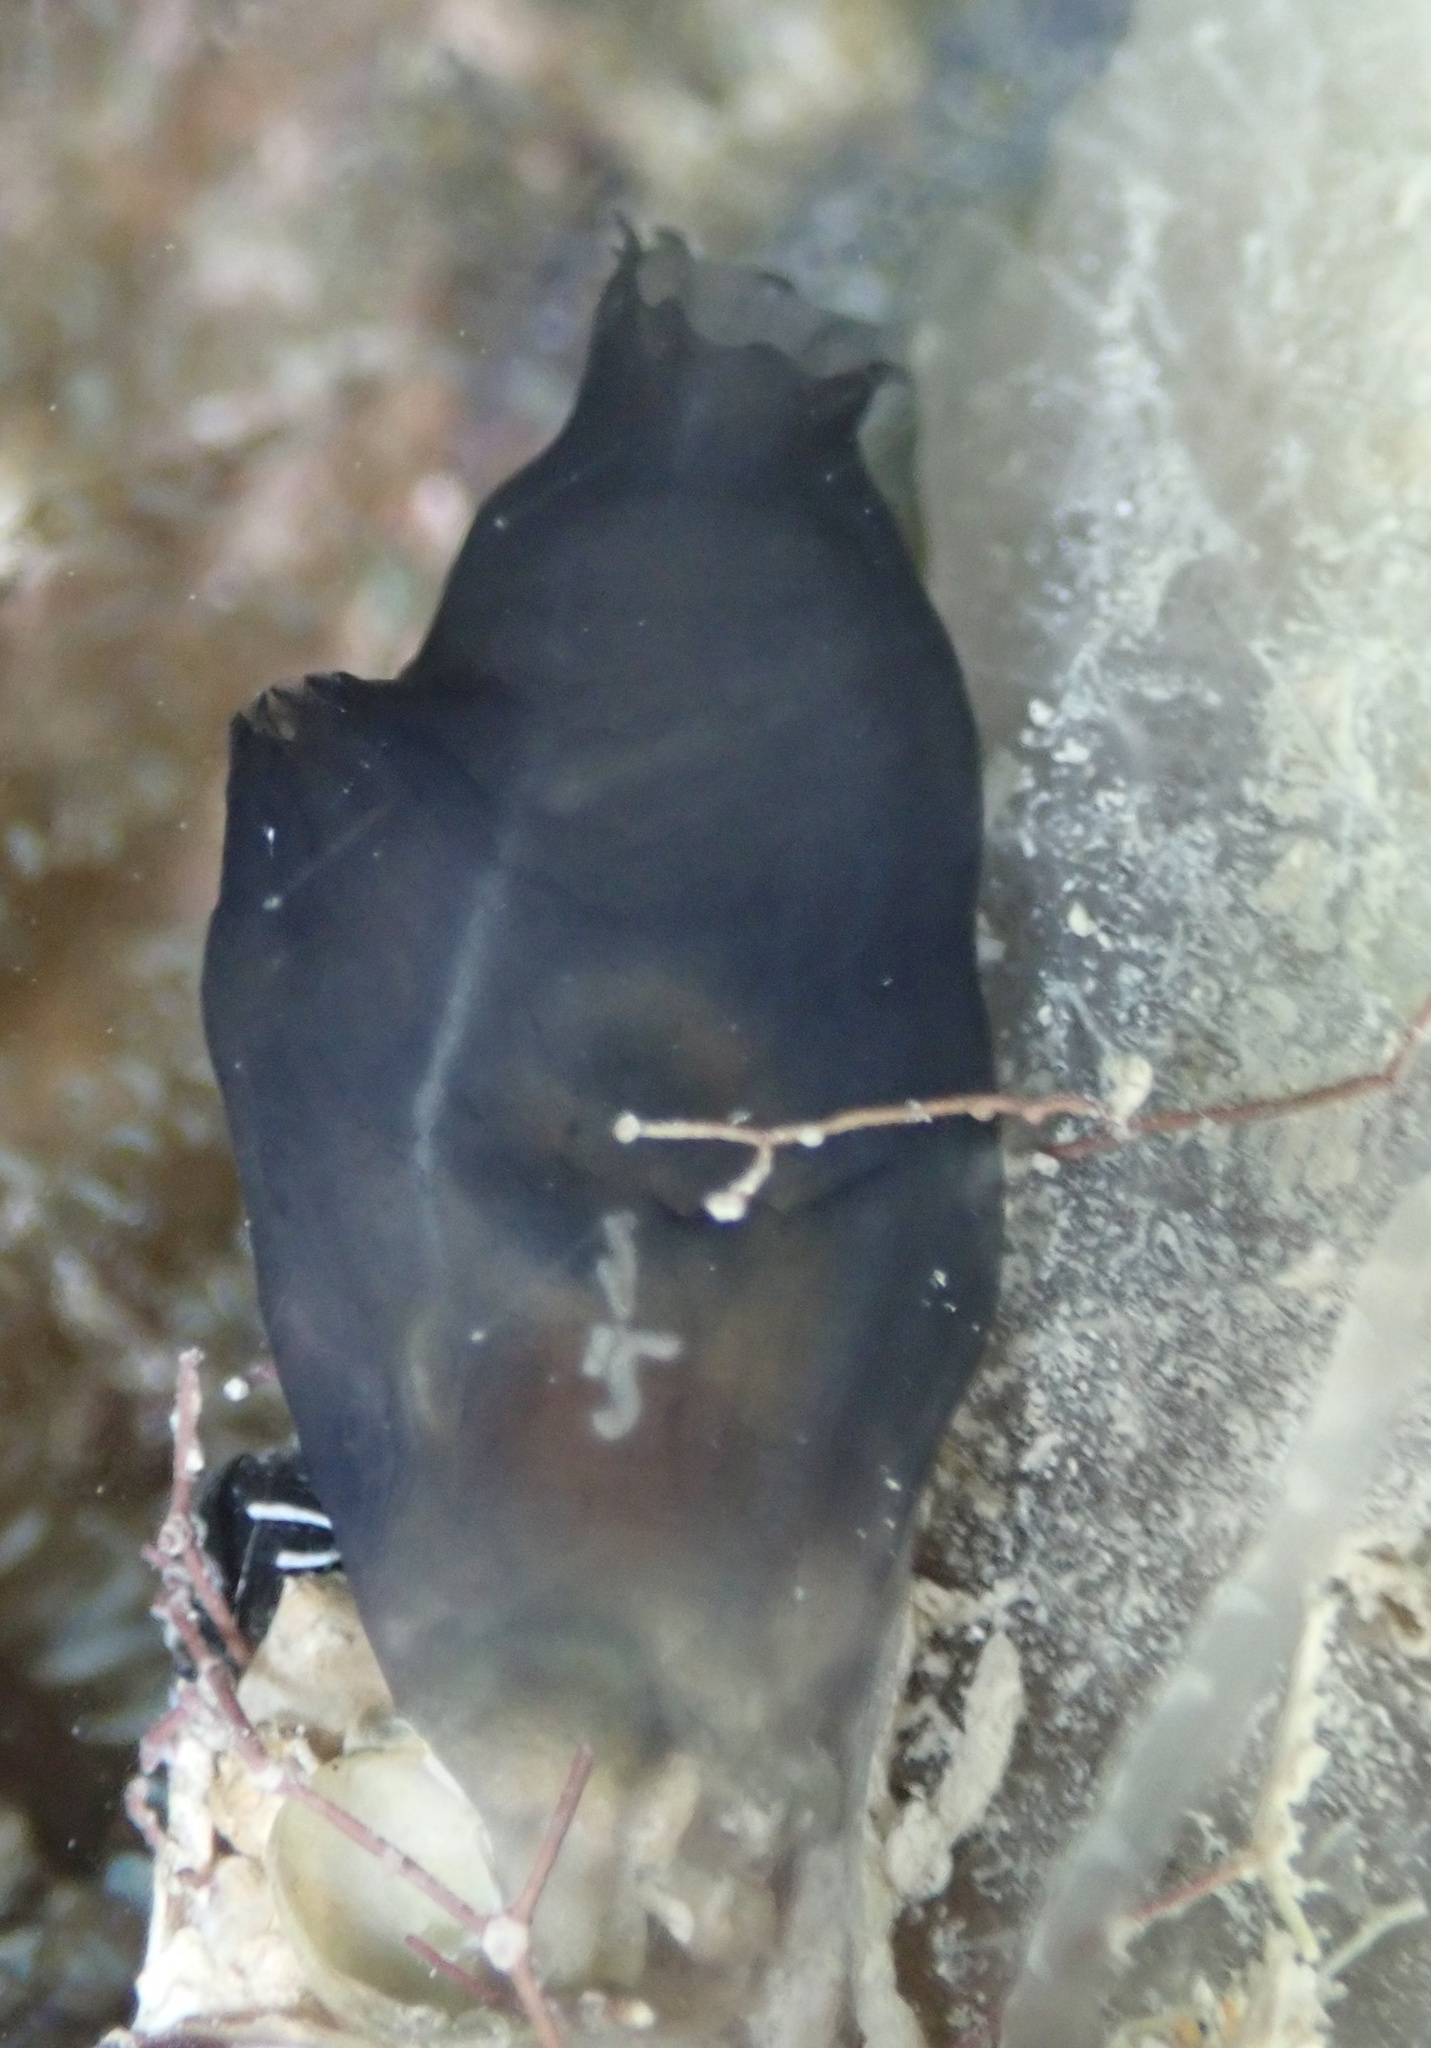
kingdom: Animalia
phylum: Chordata
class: Ascidiacea
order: Phlebobranchia
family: Ascidiidae
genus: Phallusia
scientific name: Phallusia nigra
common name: Black tunicate
